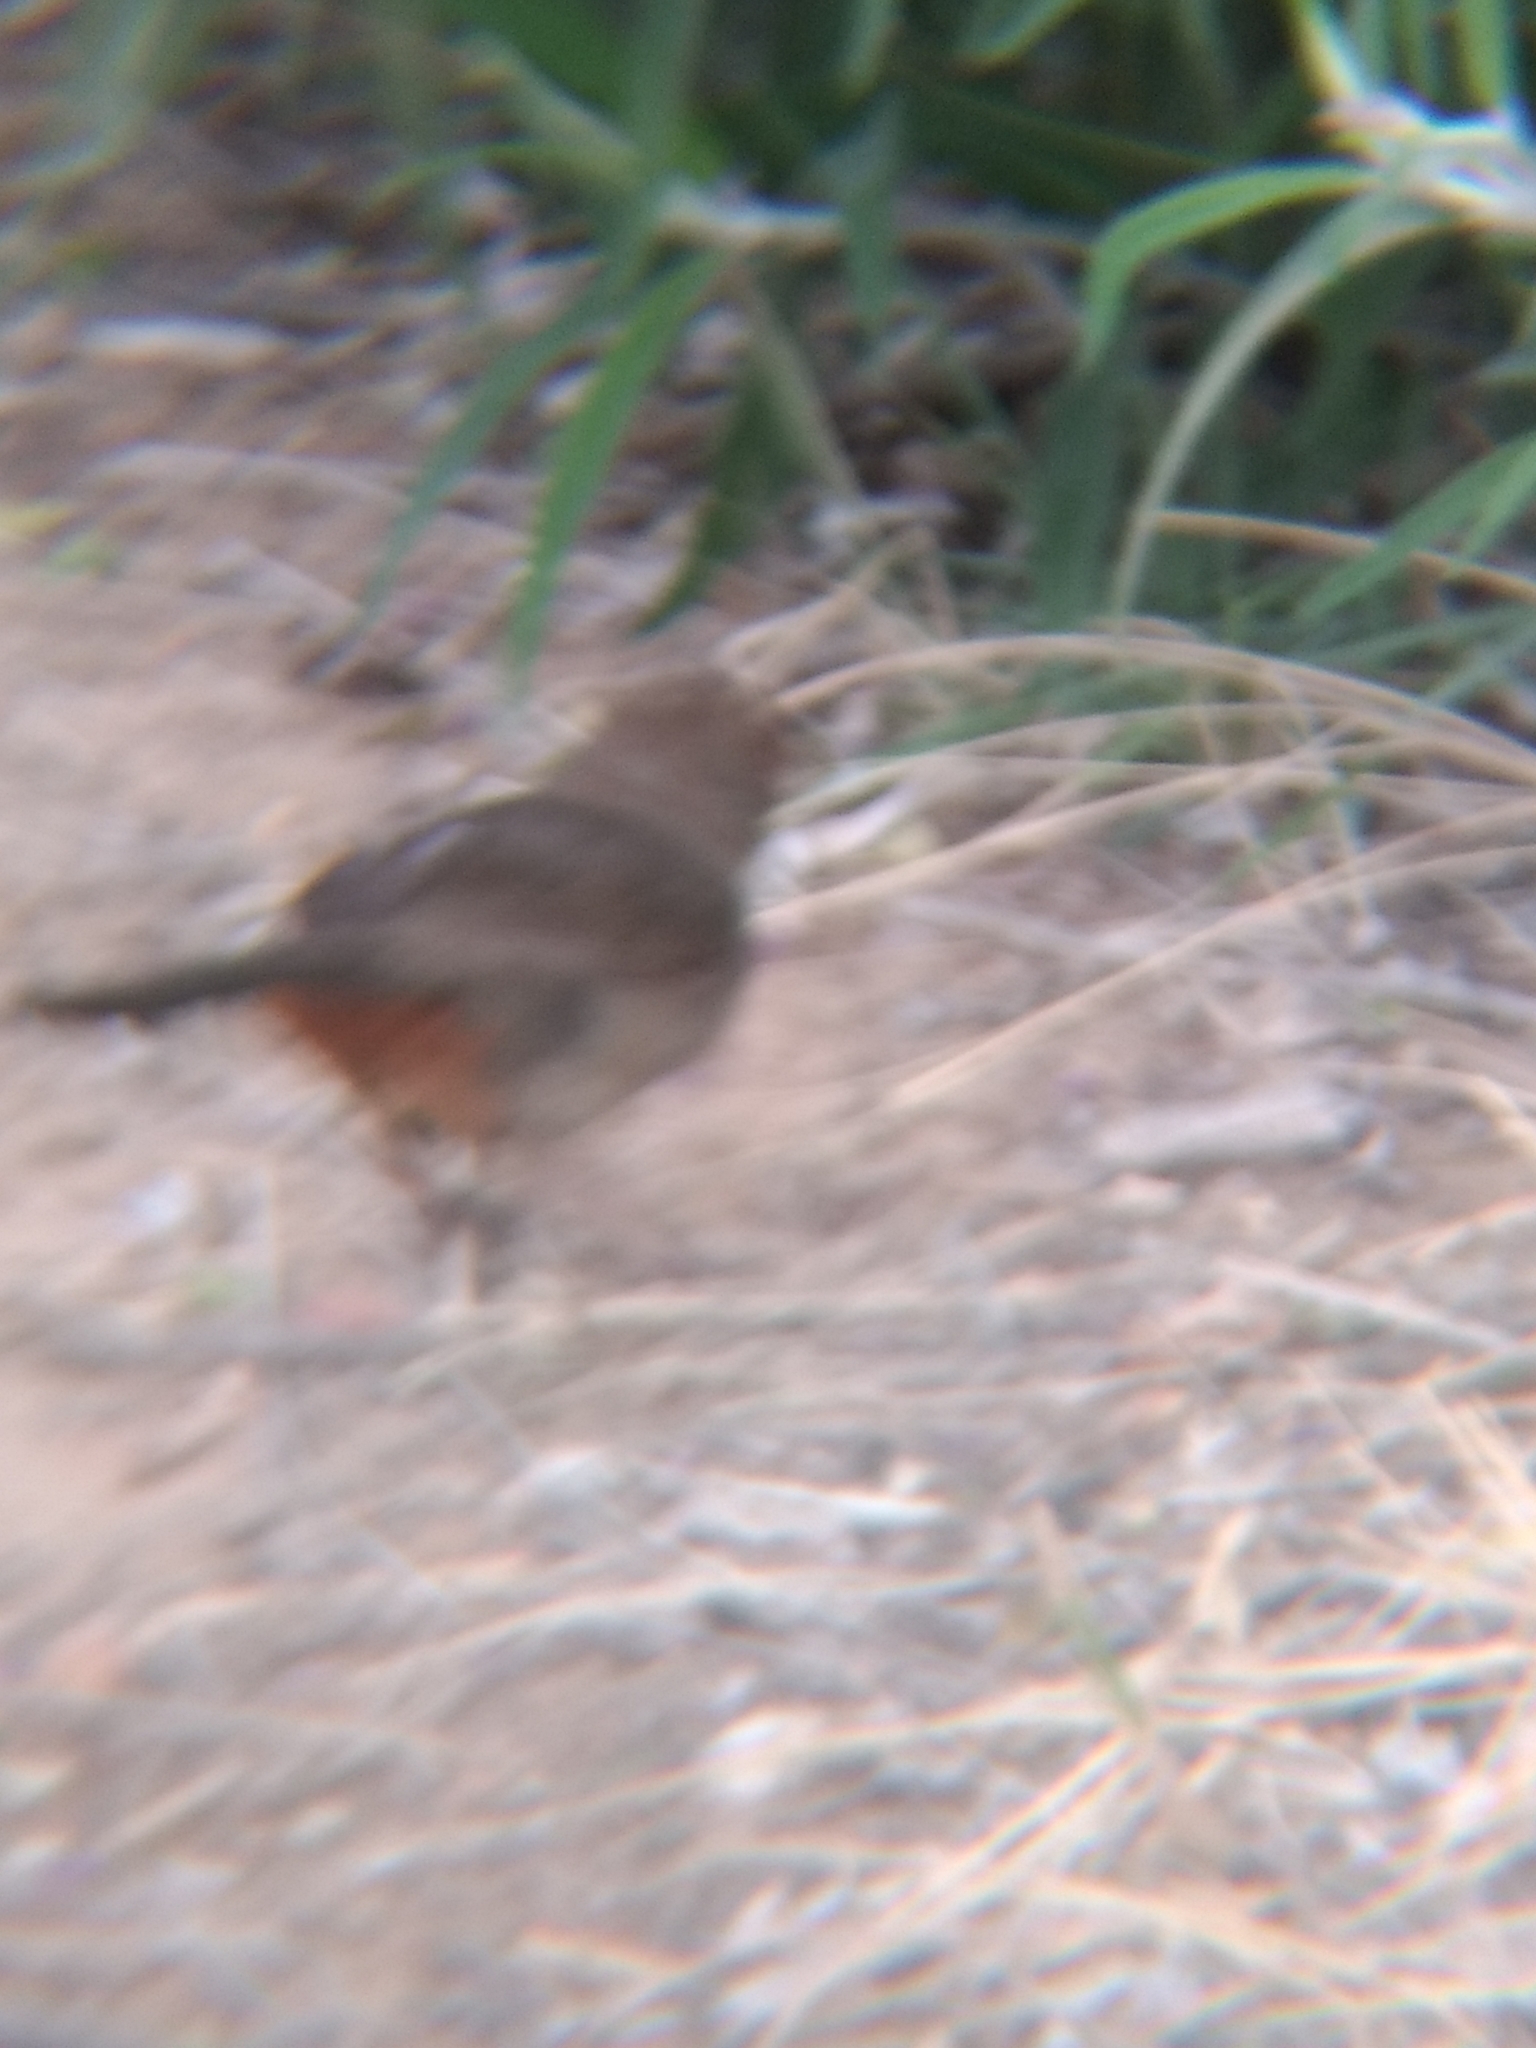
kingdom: Animalia
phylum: Chordata
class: Aves
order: Passeriformes
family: Passerellidae
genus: Melozone
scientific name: Melozone crissalis
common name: California towhee
